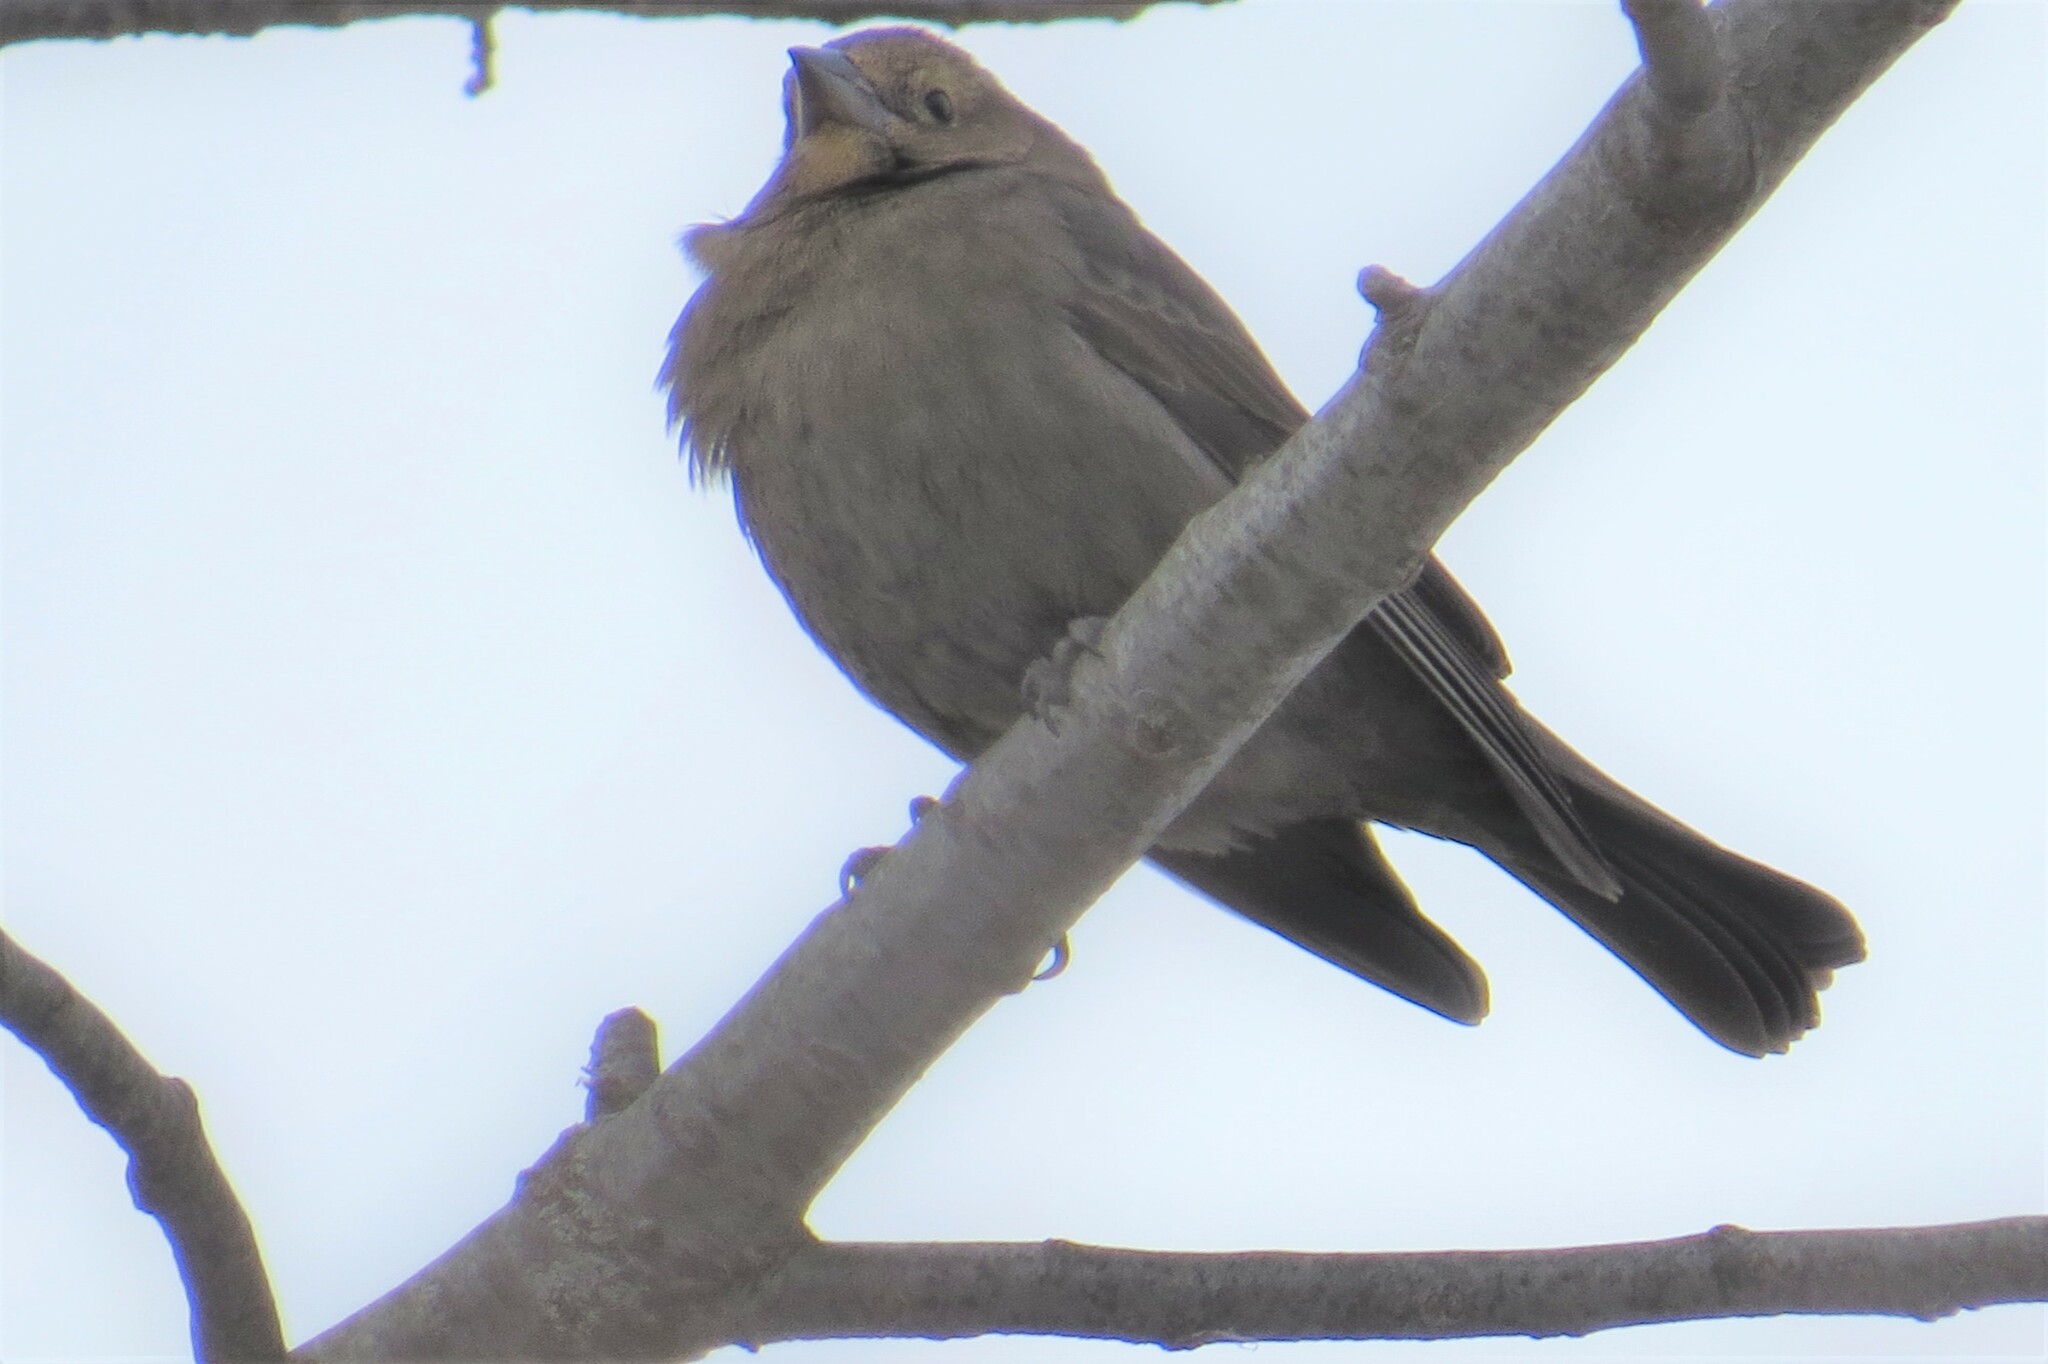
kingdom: Animalia
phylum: Chordata
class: Aves
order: Passeriformes
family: Icteridae
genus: Molothrus
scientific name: Molothrus ater
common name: Brown-headed cowbird
